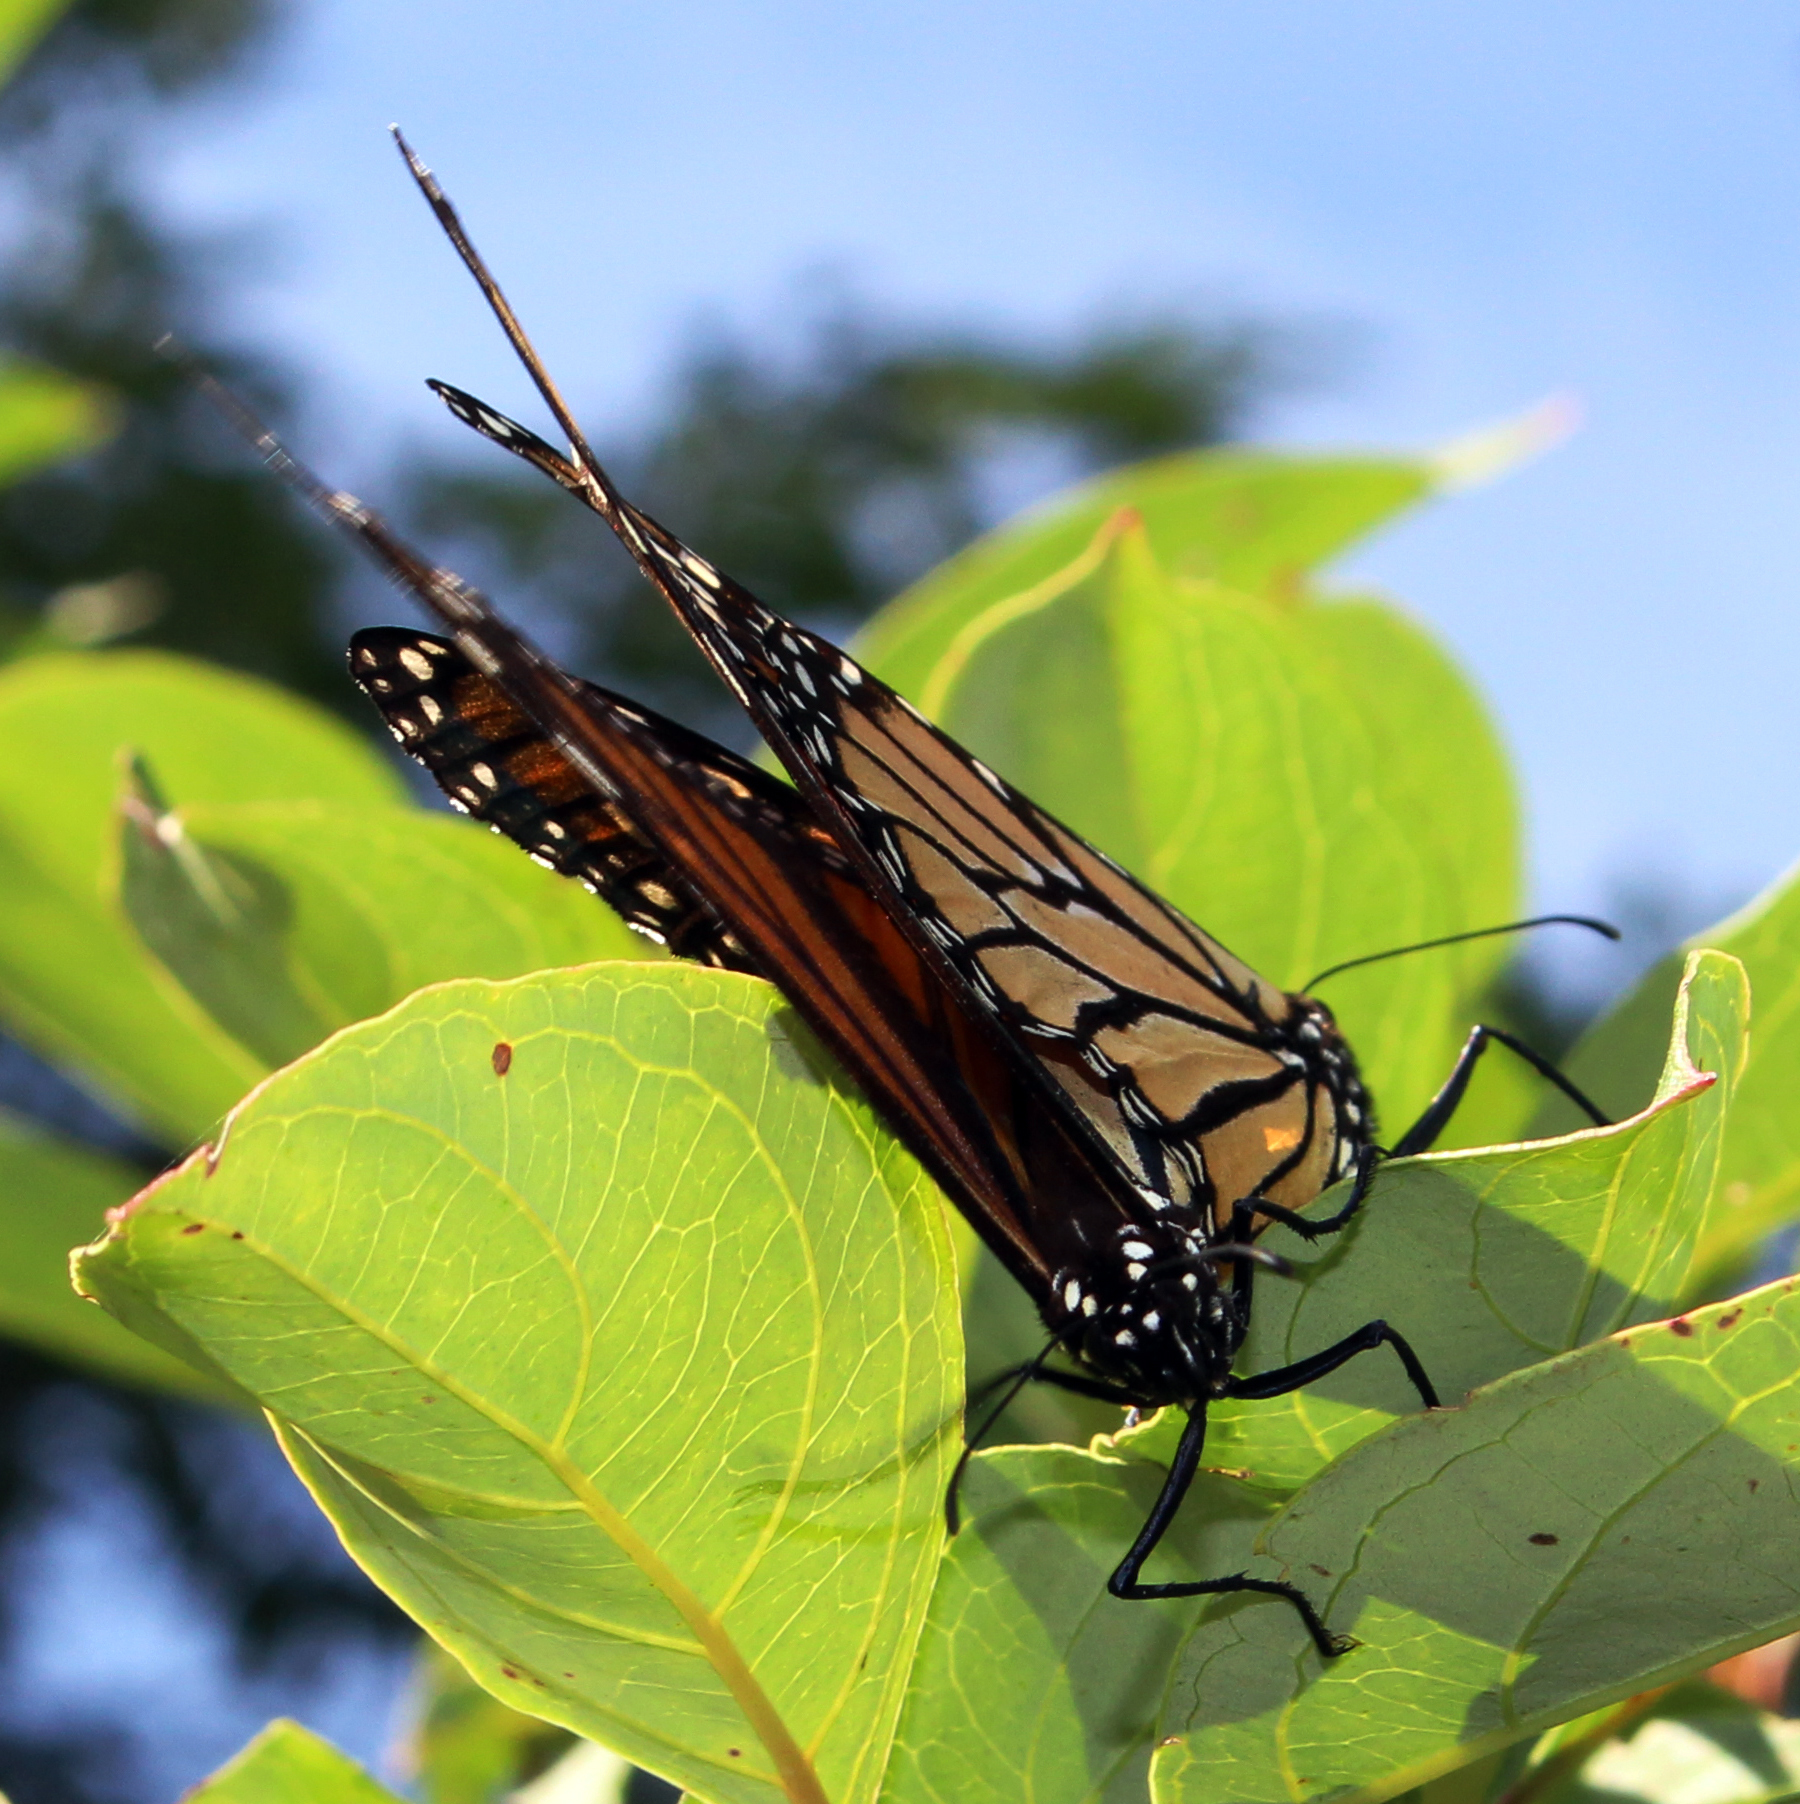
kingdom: Animalia
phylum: Arthropoda
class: Insecta
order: Lepidoptera
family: Nymphalidae
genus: Danaus
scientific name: Danaus plexippus
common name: Monarch
